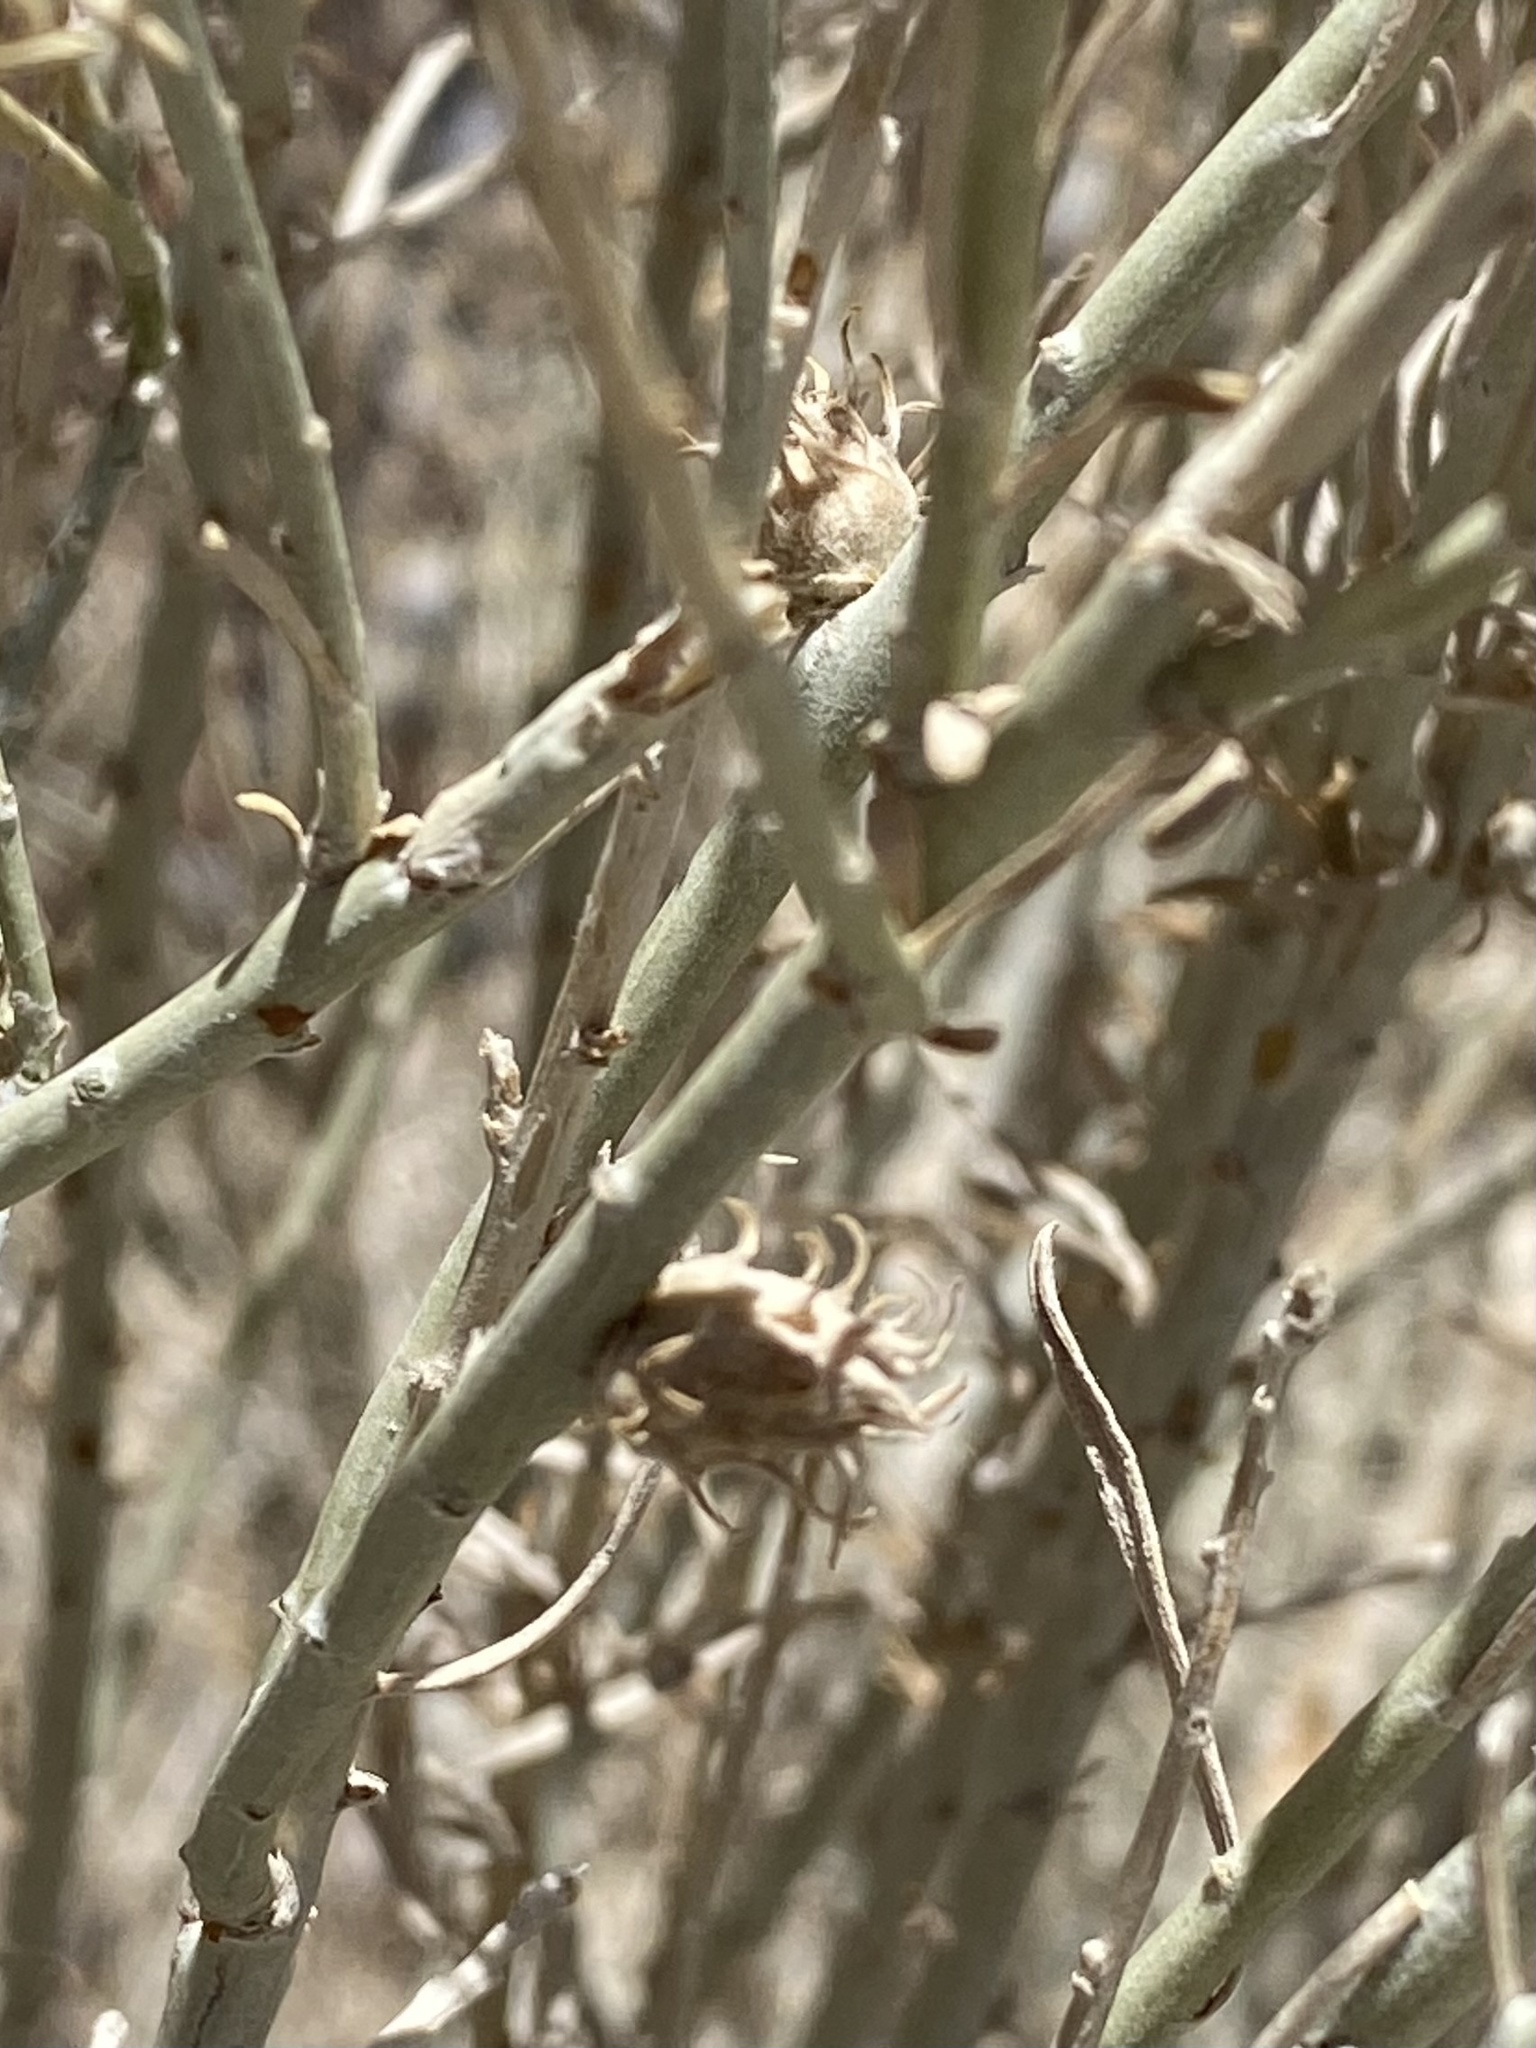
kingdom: Animalia
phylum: Arthropoda
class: Insecta
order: Diptera
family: Cecidomyiidae
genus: Rhopalomyia
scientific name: Rhopalomyia utahensis
